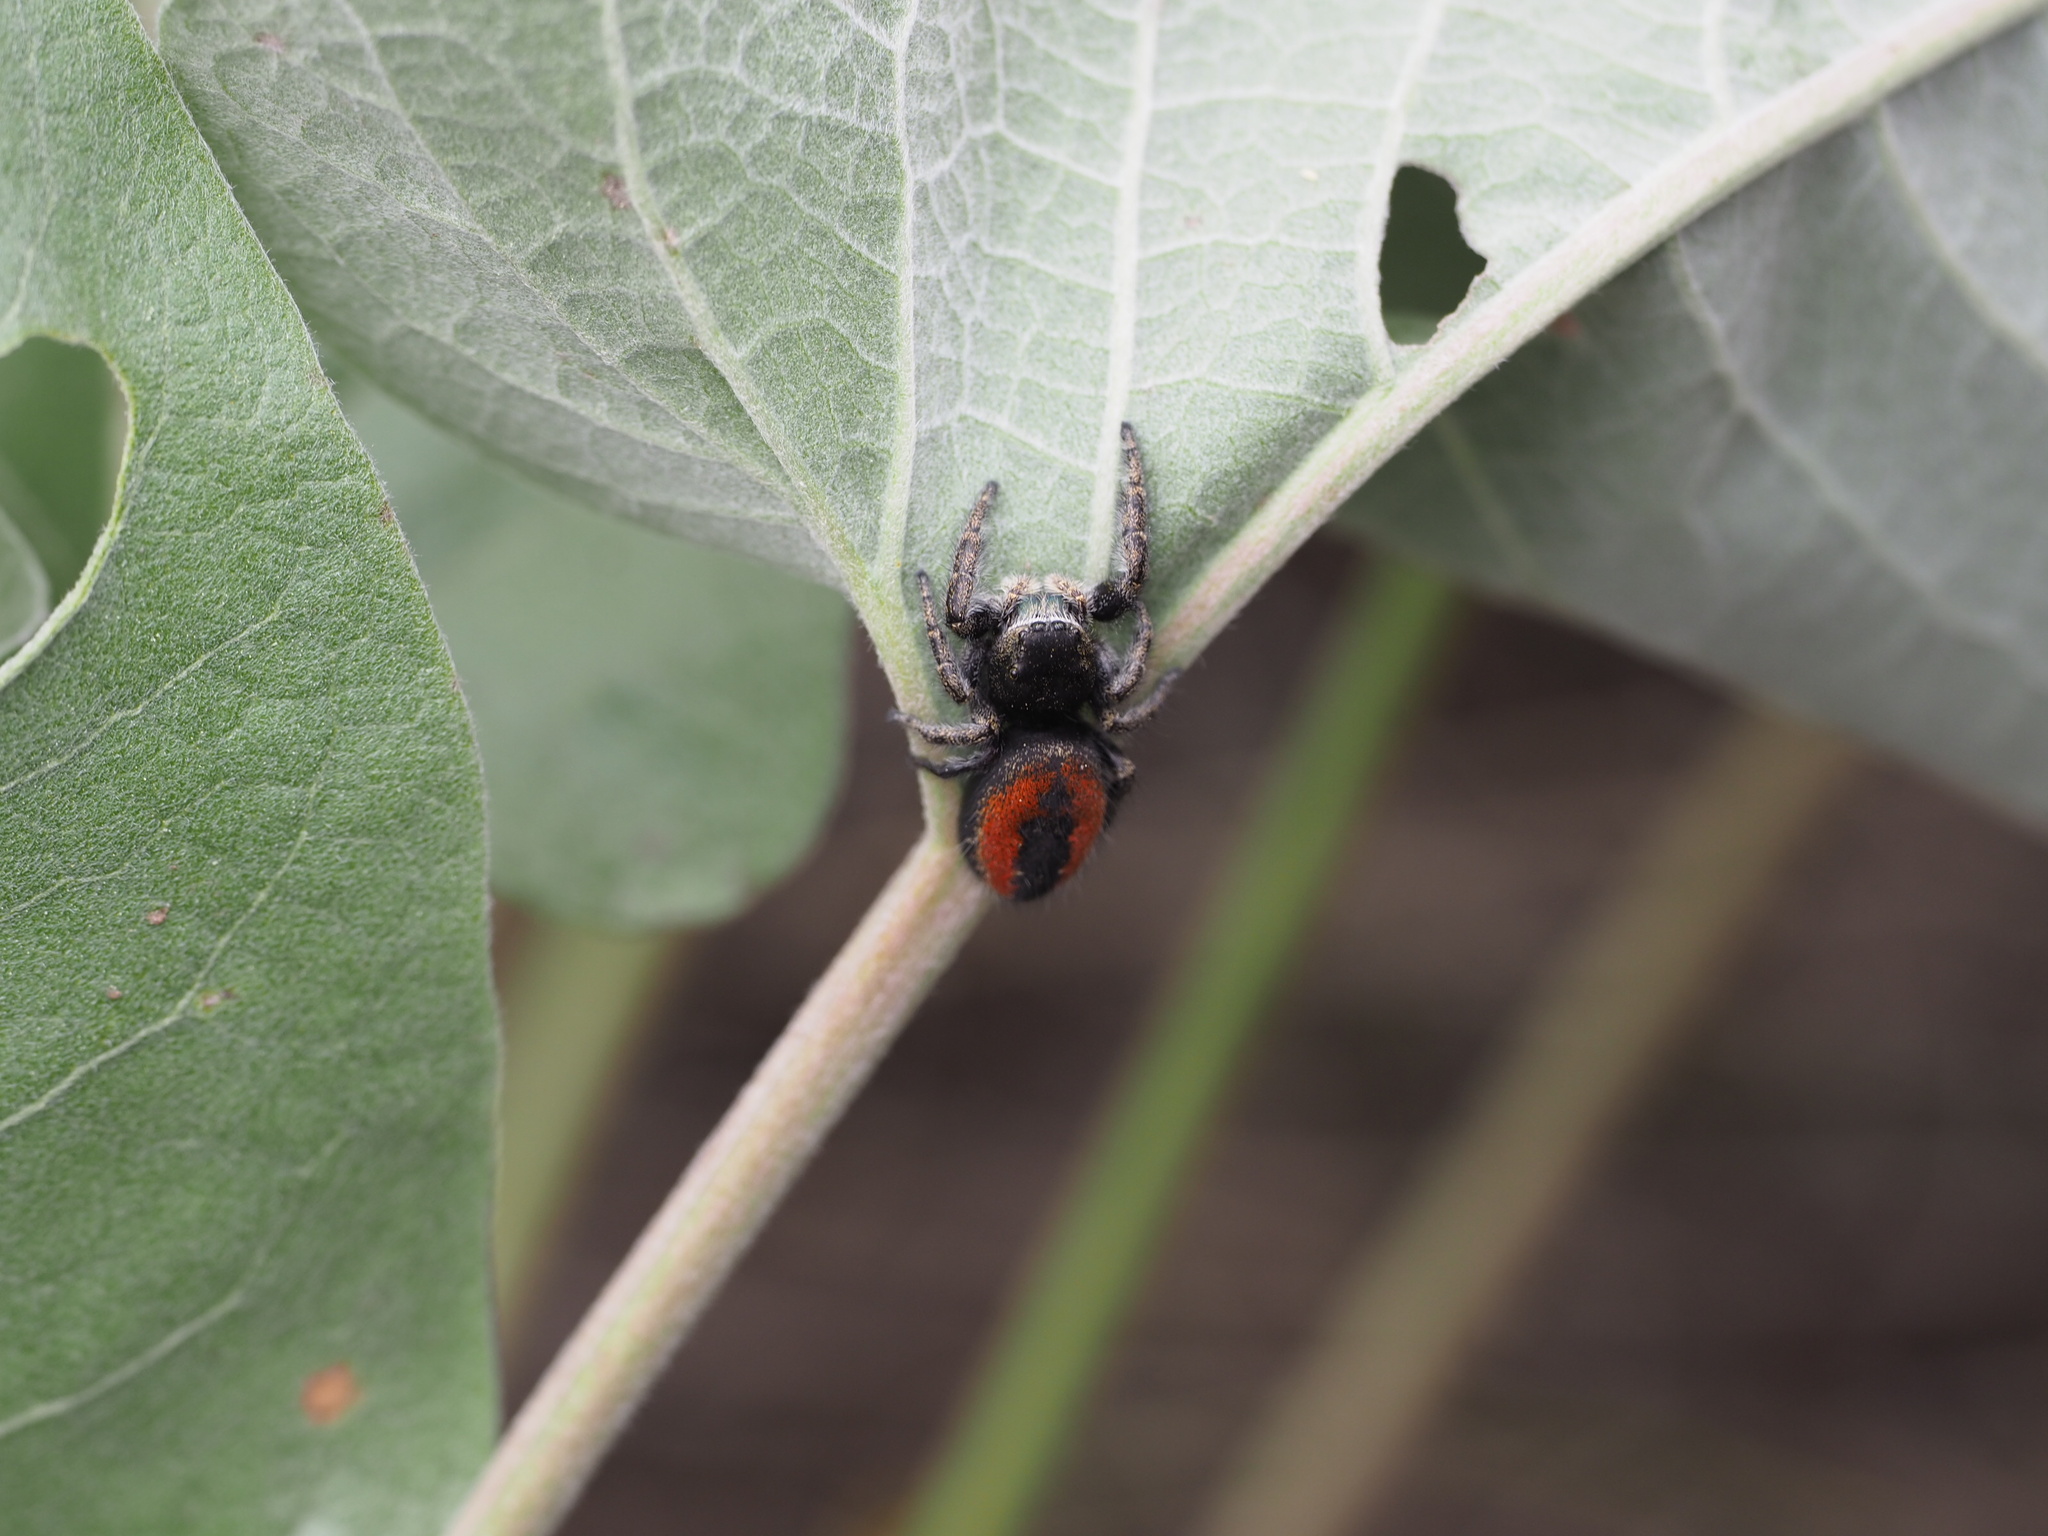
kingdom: Animalia
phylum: Arthropoda
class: Arachnida
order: Araneae
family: Salticidae
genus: Phidippus
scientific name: Phidippus johnsoni
